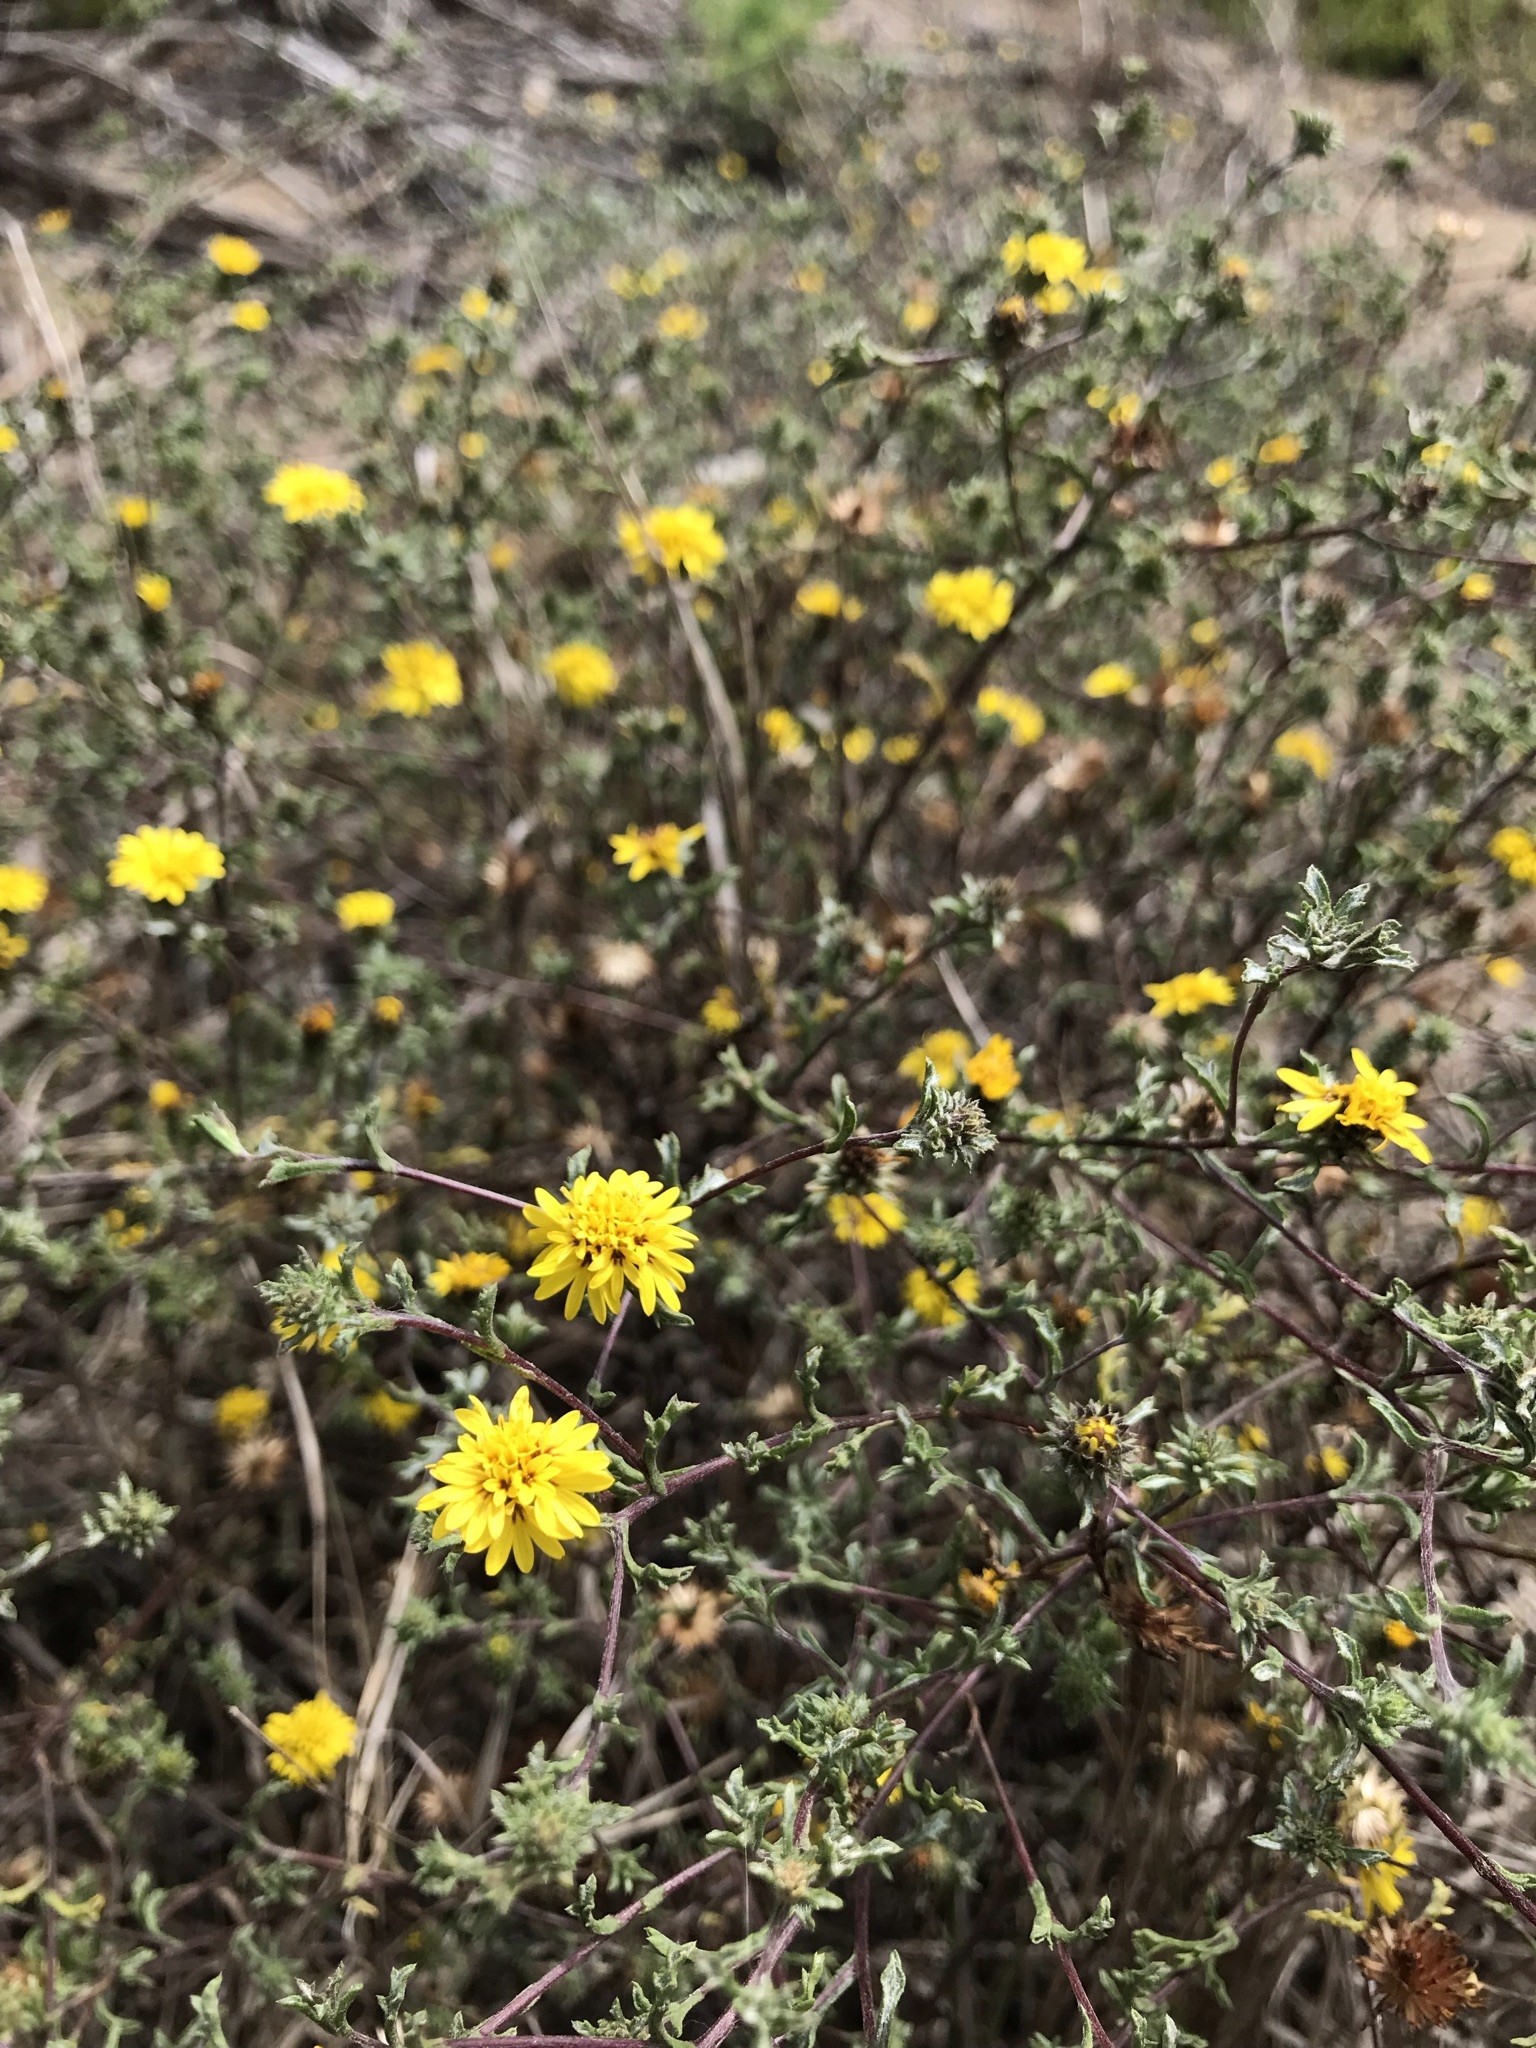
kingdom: Plantae
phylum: Tracheophyta
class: Magnoliopsida
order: Asterales
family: Asteraceae
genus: Lessingia
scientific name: Lessingia germanorum
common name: San francisco lessingia
